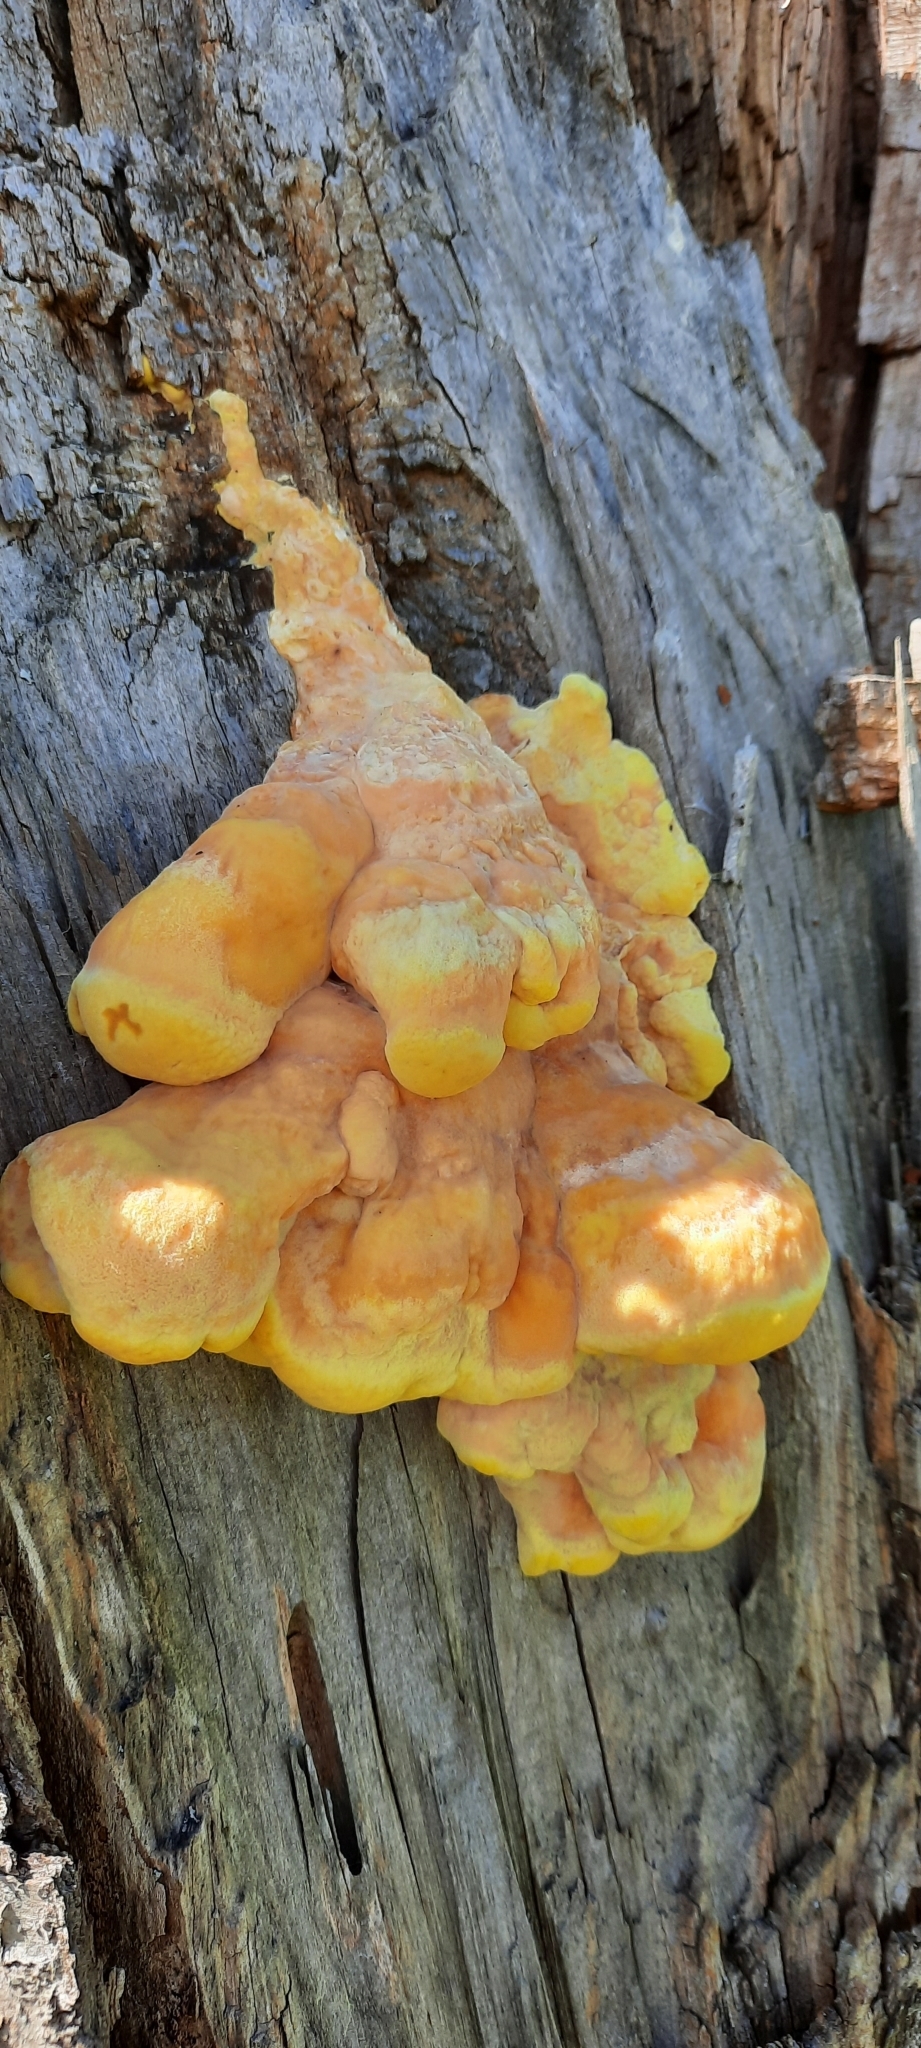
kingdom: Fungi
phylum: Basidiomycota
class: Agaricomycetes
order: Polyporales
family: Laetiporaceae
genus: Laetiporus
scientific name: Laetiporus sulphureus
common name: Chicken of the woods
